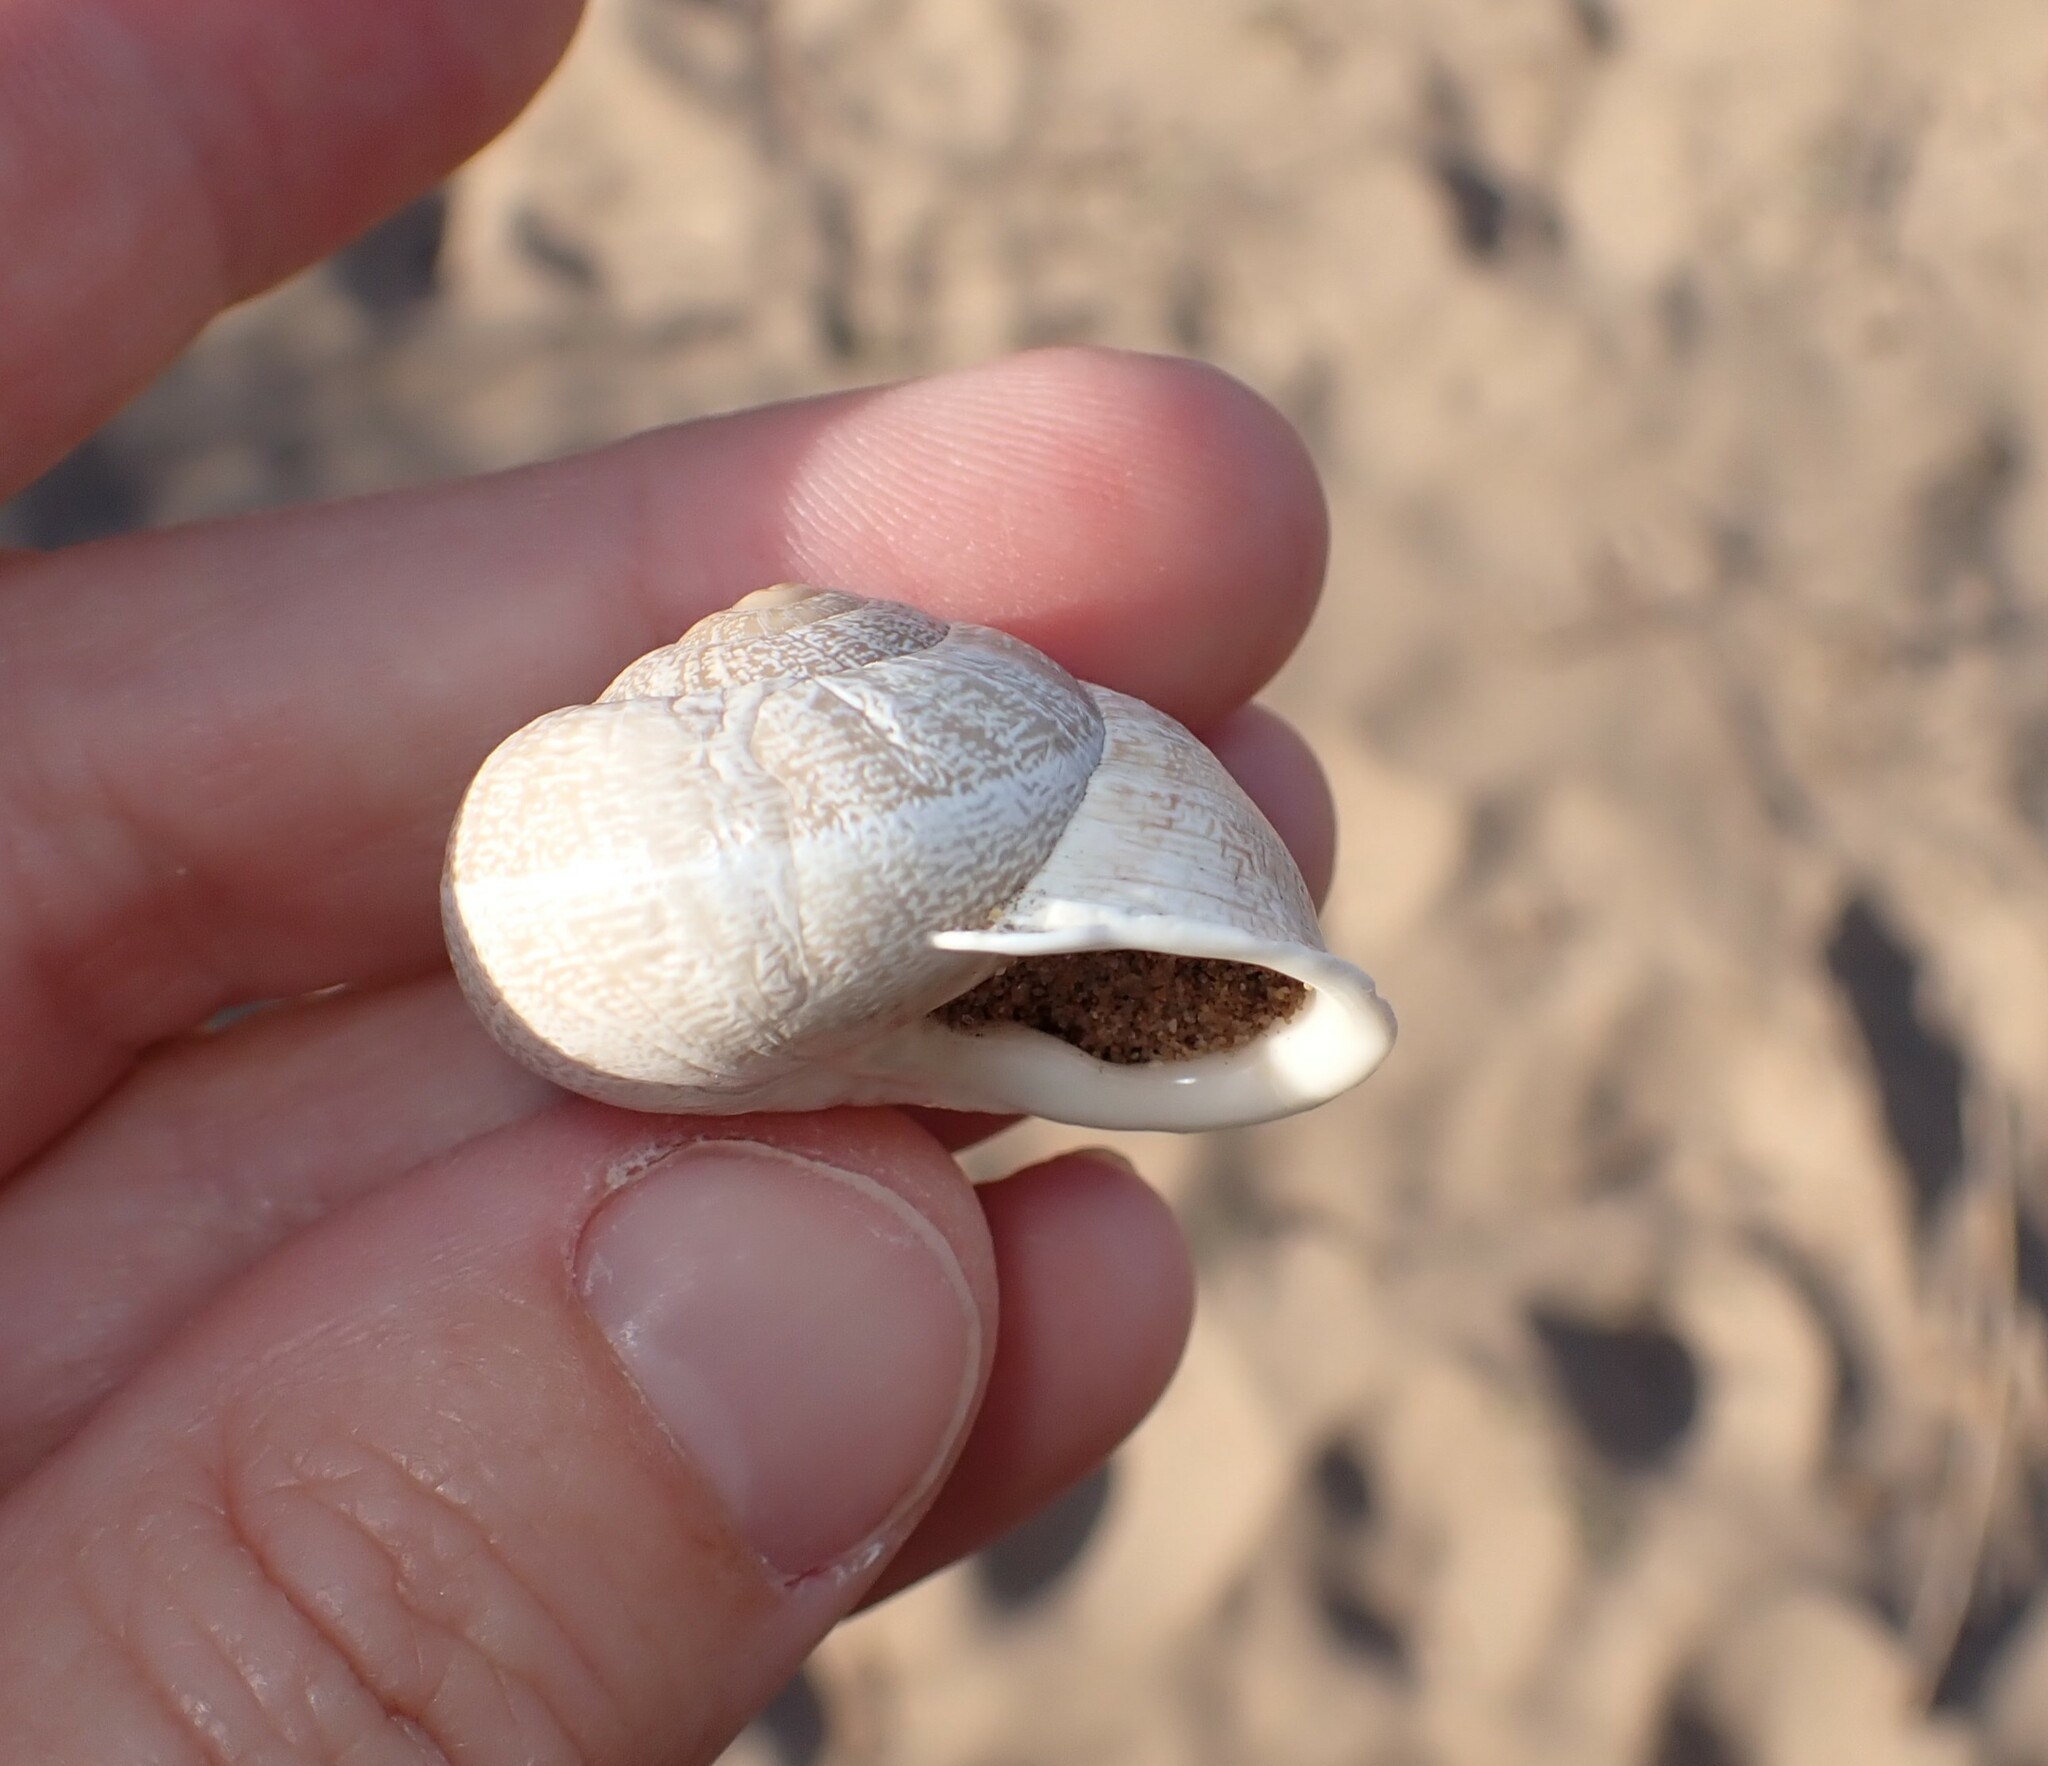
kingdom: Animalia
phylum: Mollusca
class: Gastropoda
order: Stylommatophora
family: Helicidae
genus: Eobania
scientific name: Eobania vermiculata
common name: Chocolateband snail
